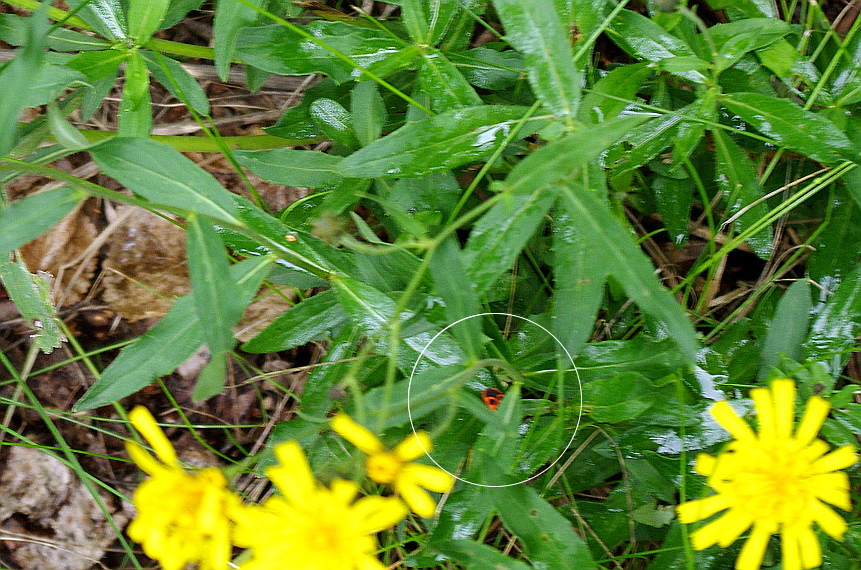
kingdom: Animalia
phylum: Arthropoda
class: Insecta
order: Hemiptera
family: Pyrrhocoridae
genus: Pyrrhocoris
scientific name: Pyrrhocoris apterus
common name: Firebug
